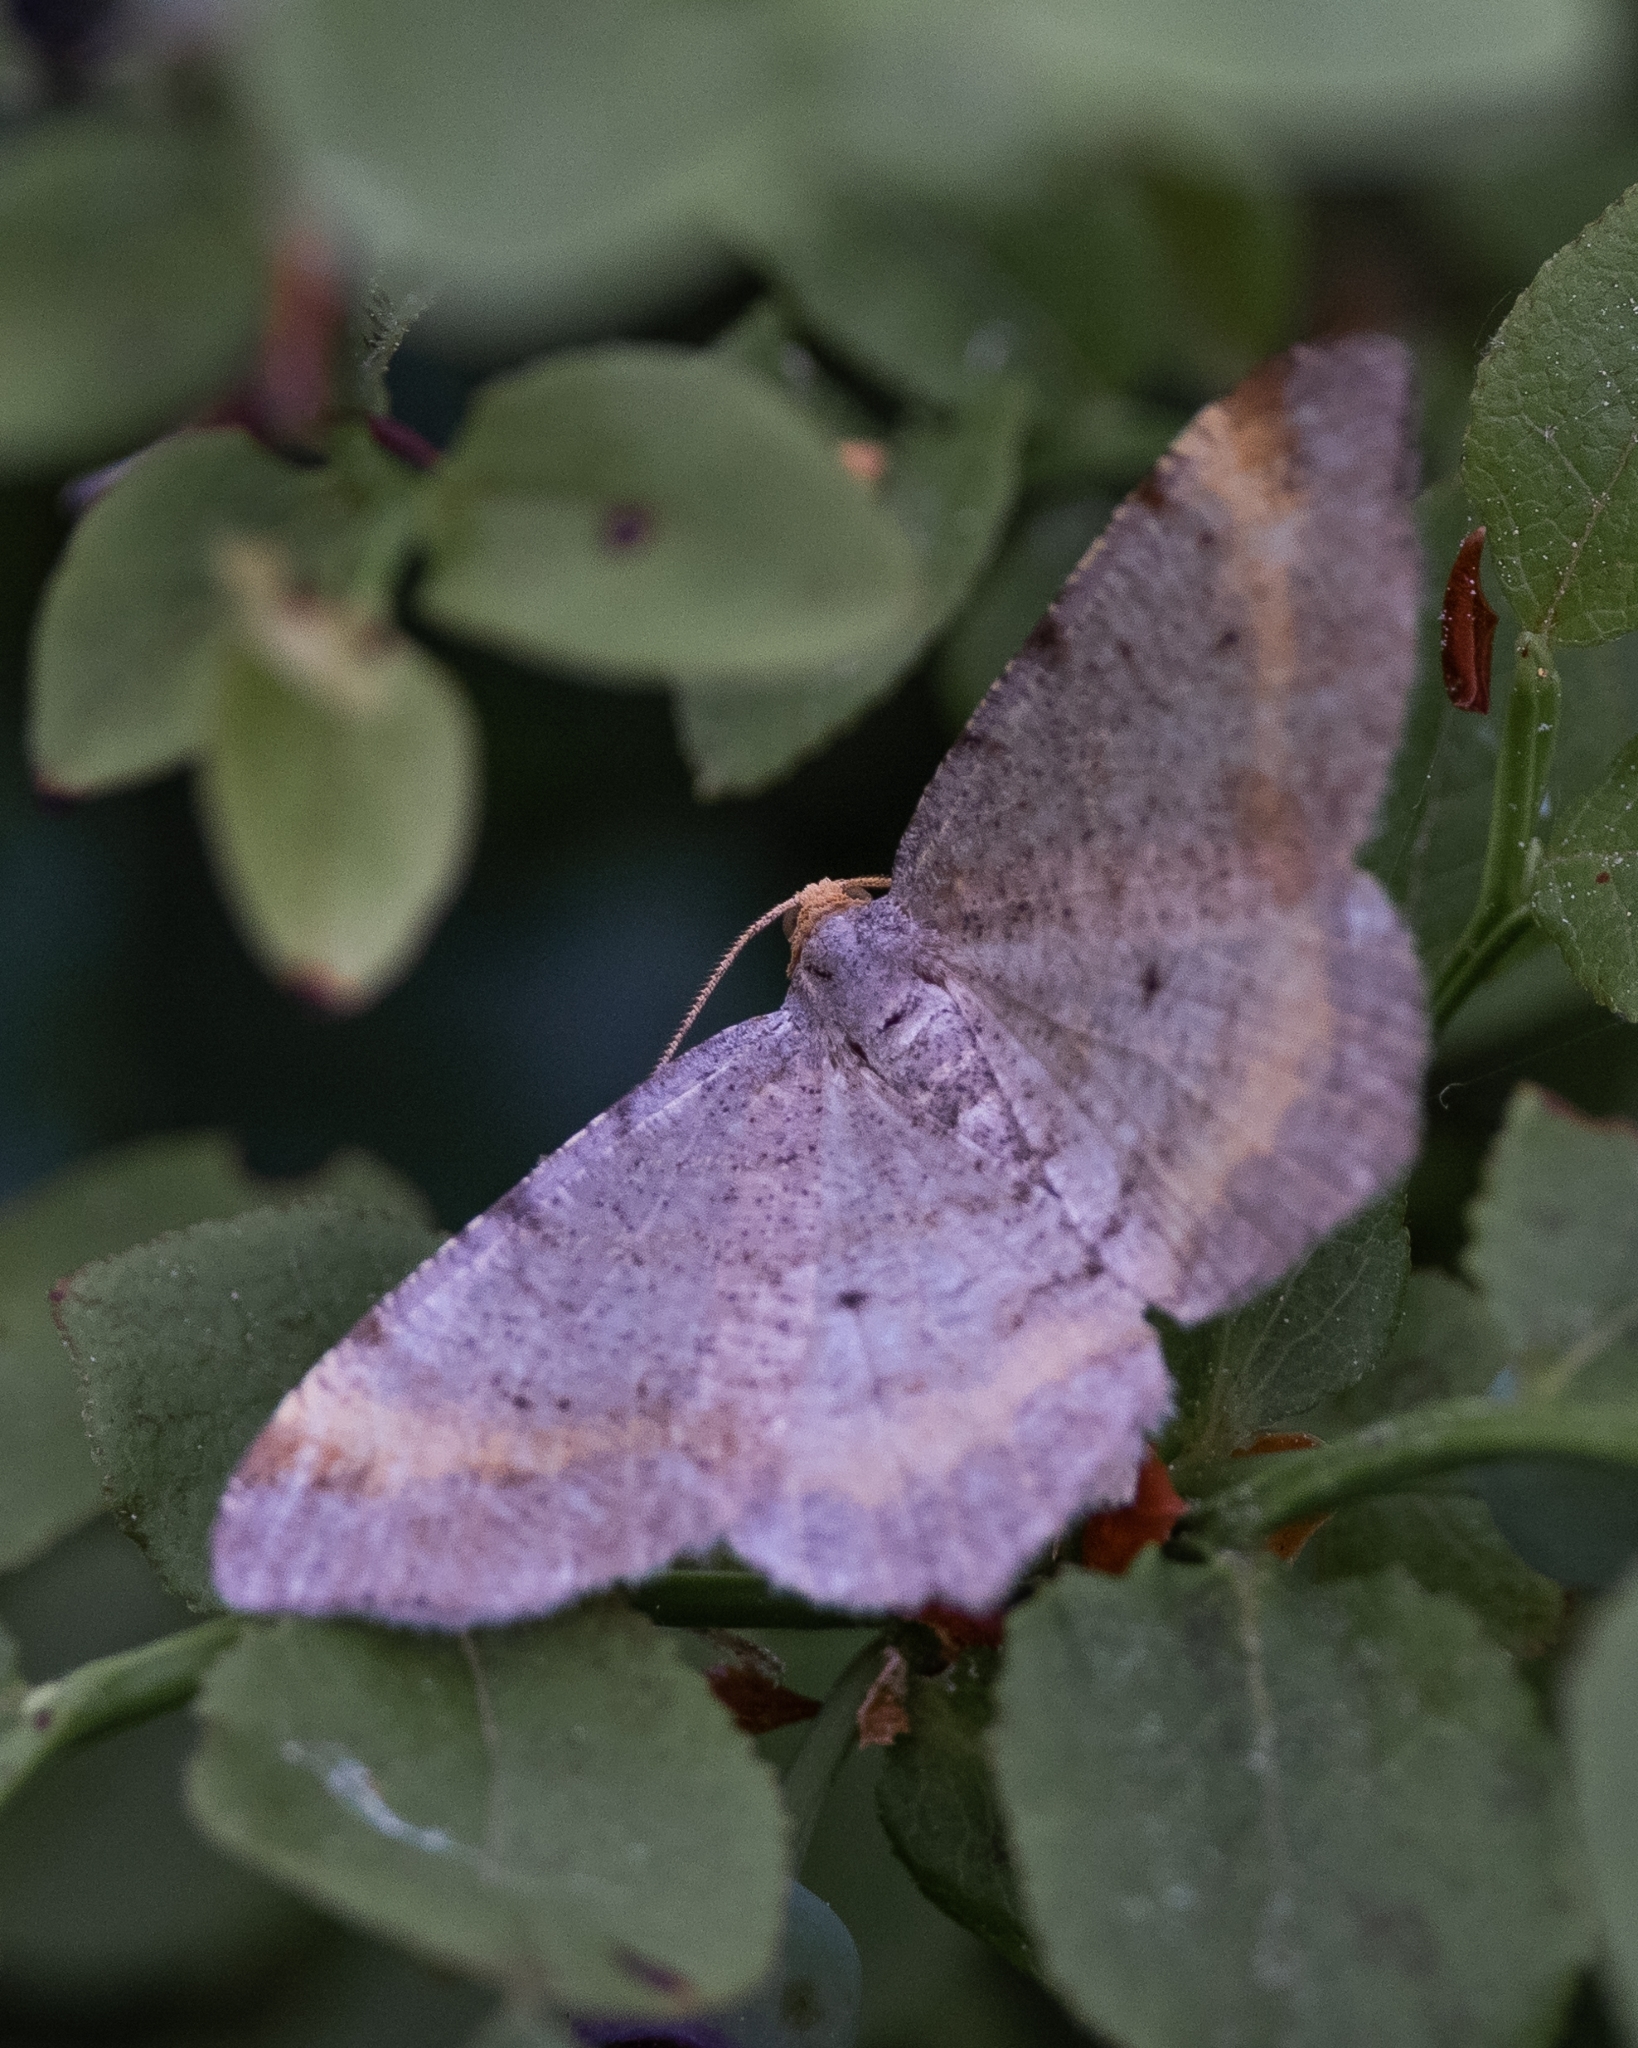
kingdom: Animalia
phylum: Arthropoda
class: Insecta
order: Lepidoptera
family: Geometridae
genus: Macaria
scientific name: Macaria liturata
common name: Tawny-barred angle
